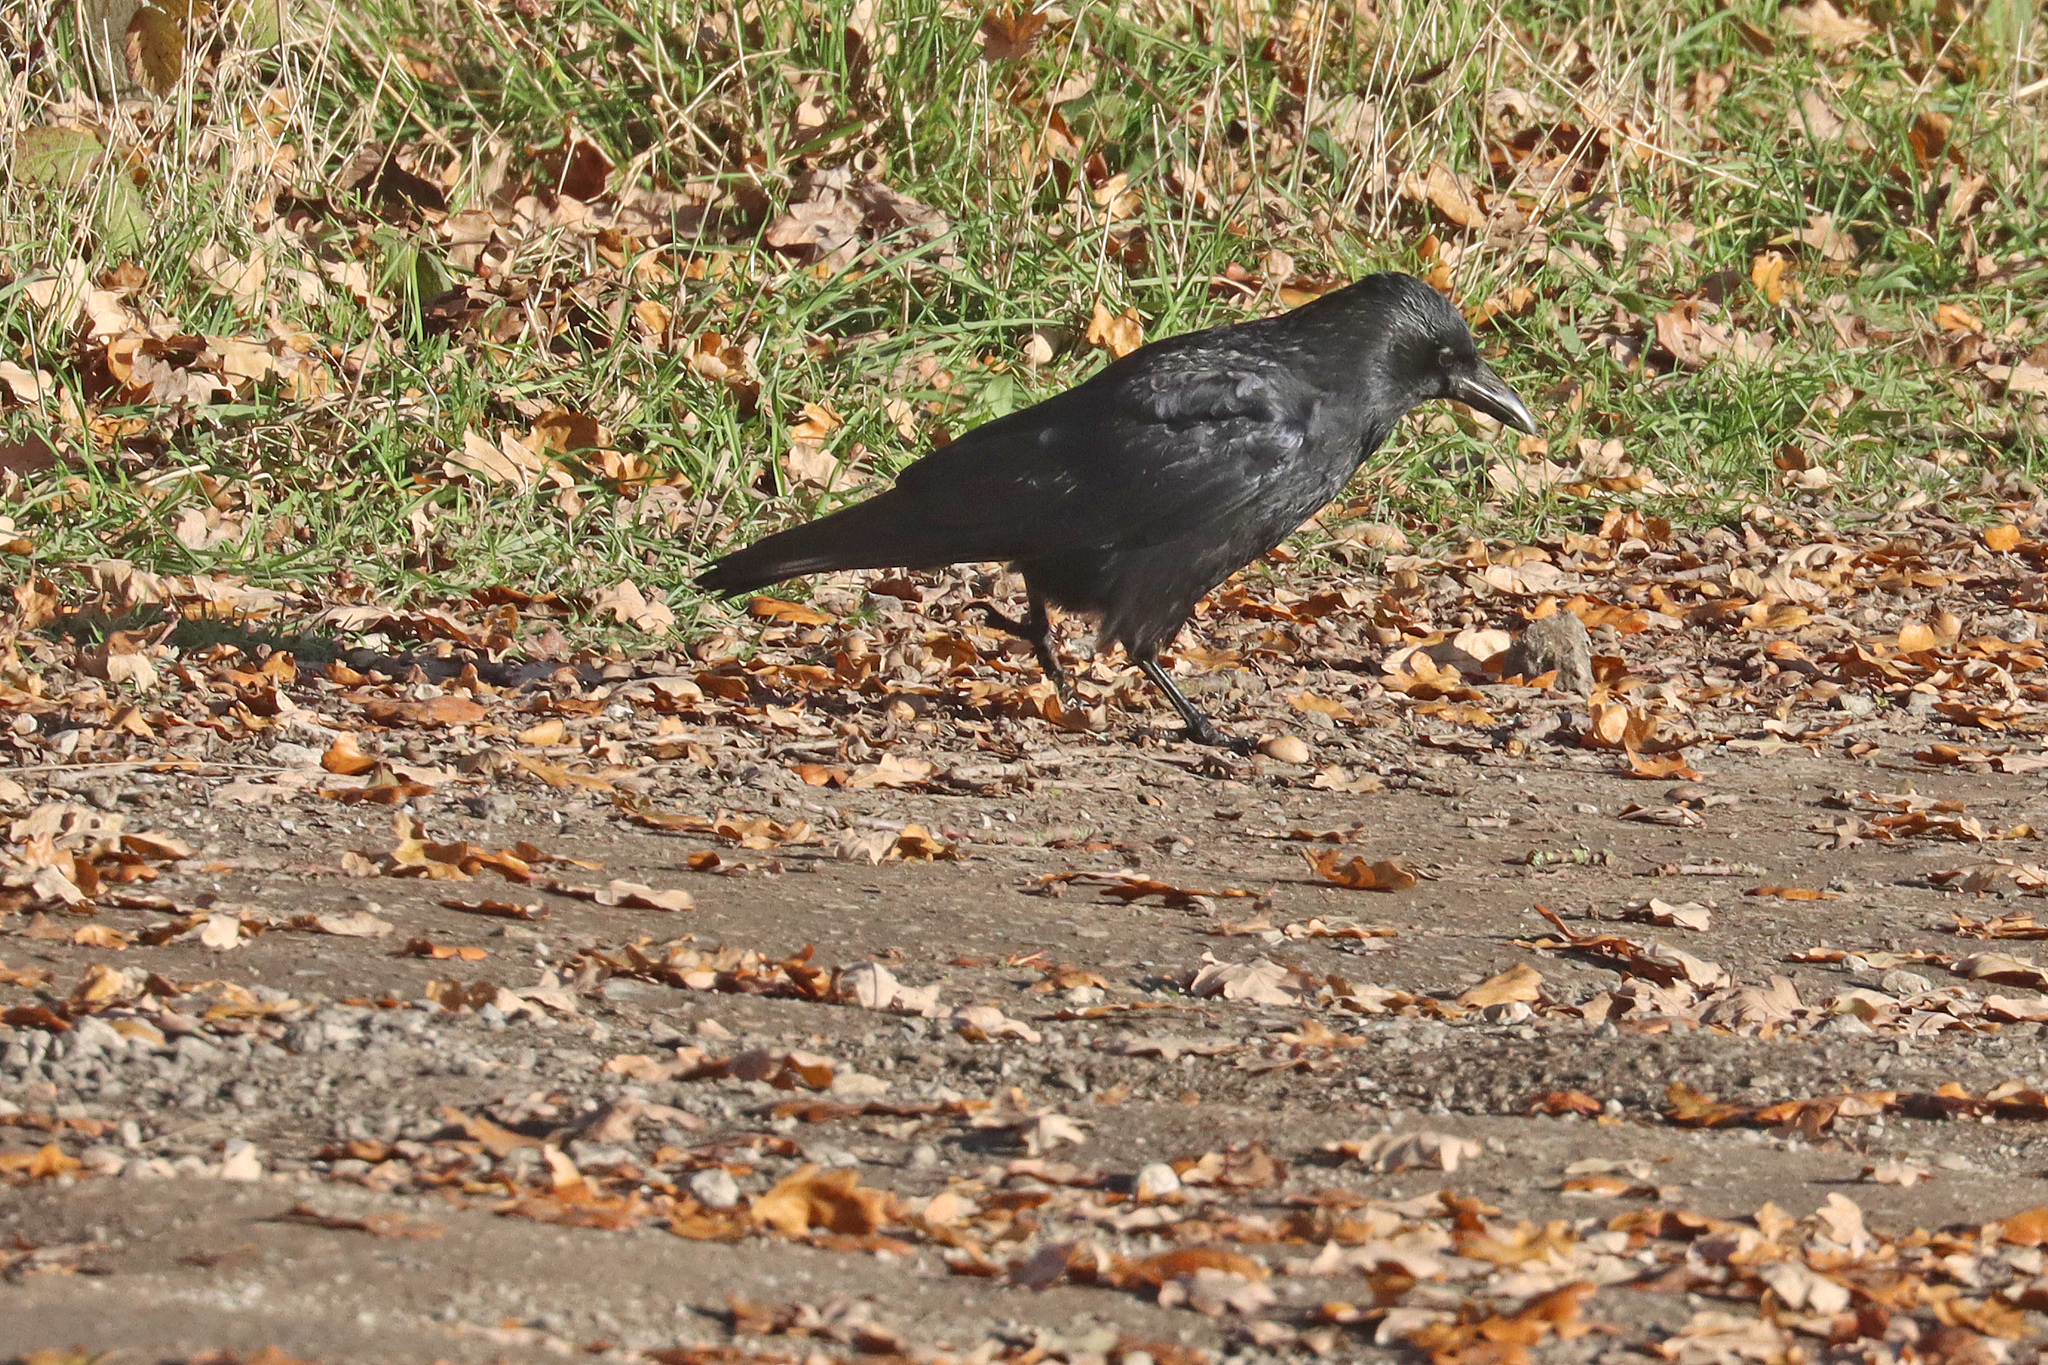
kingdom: Animalia
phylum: Chordata
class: Aves
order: Passeriformes
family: Corvidae
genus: Corvus
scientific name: Corvus corone
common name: Carrion crow
